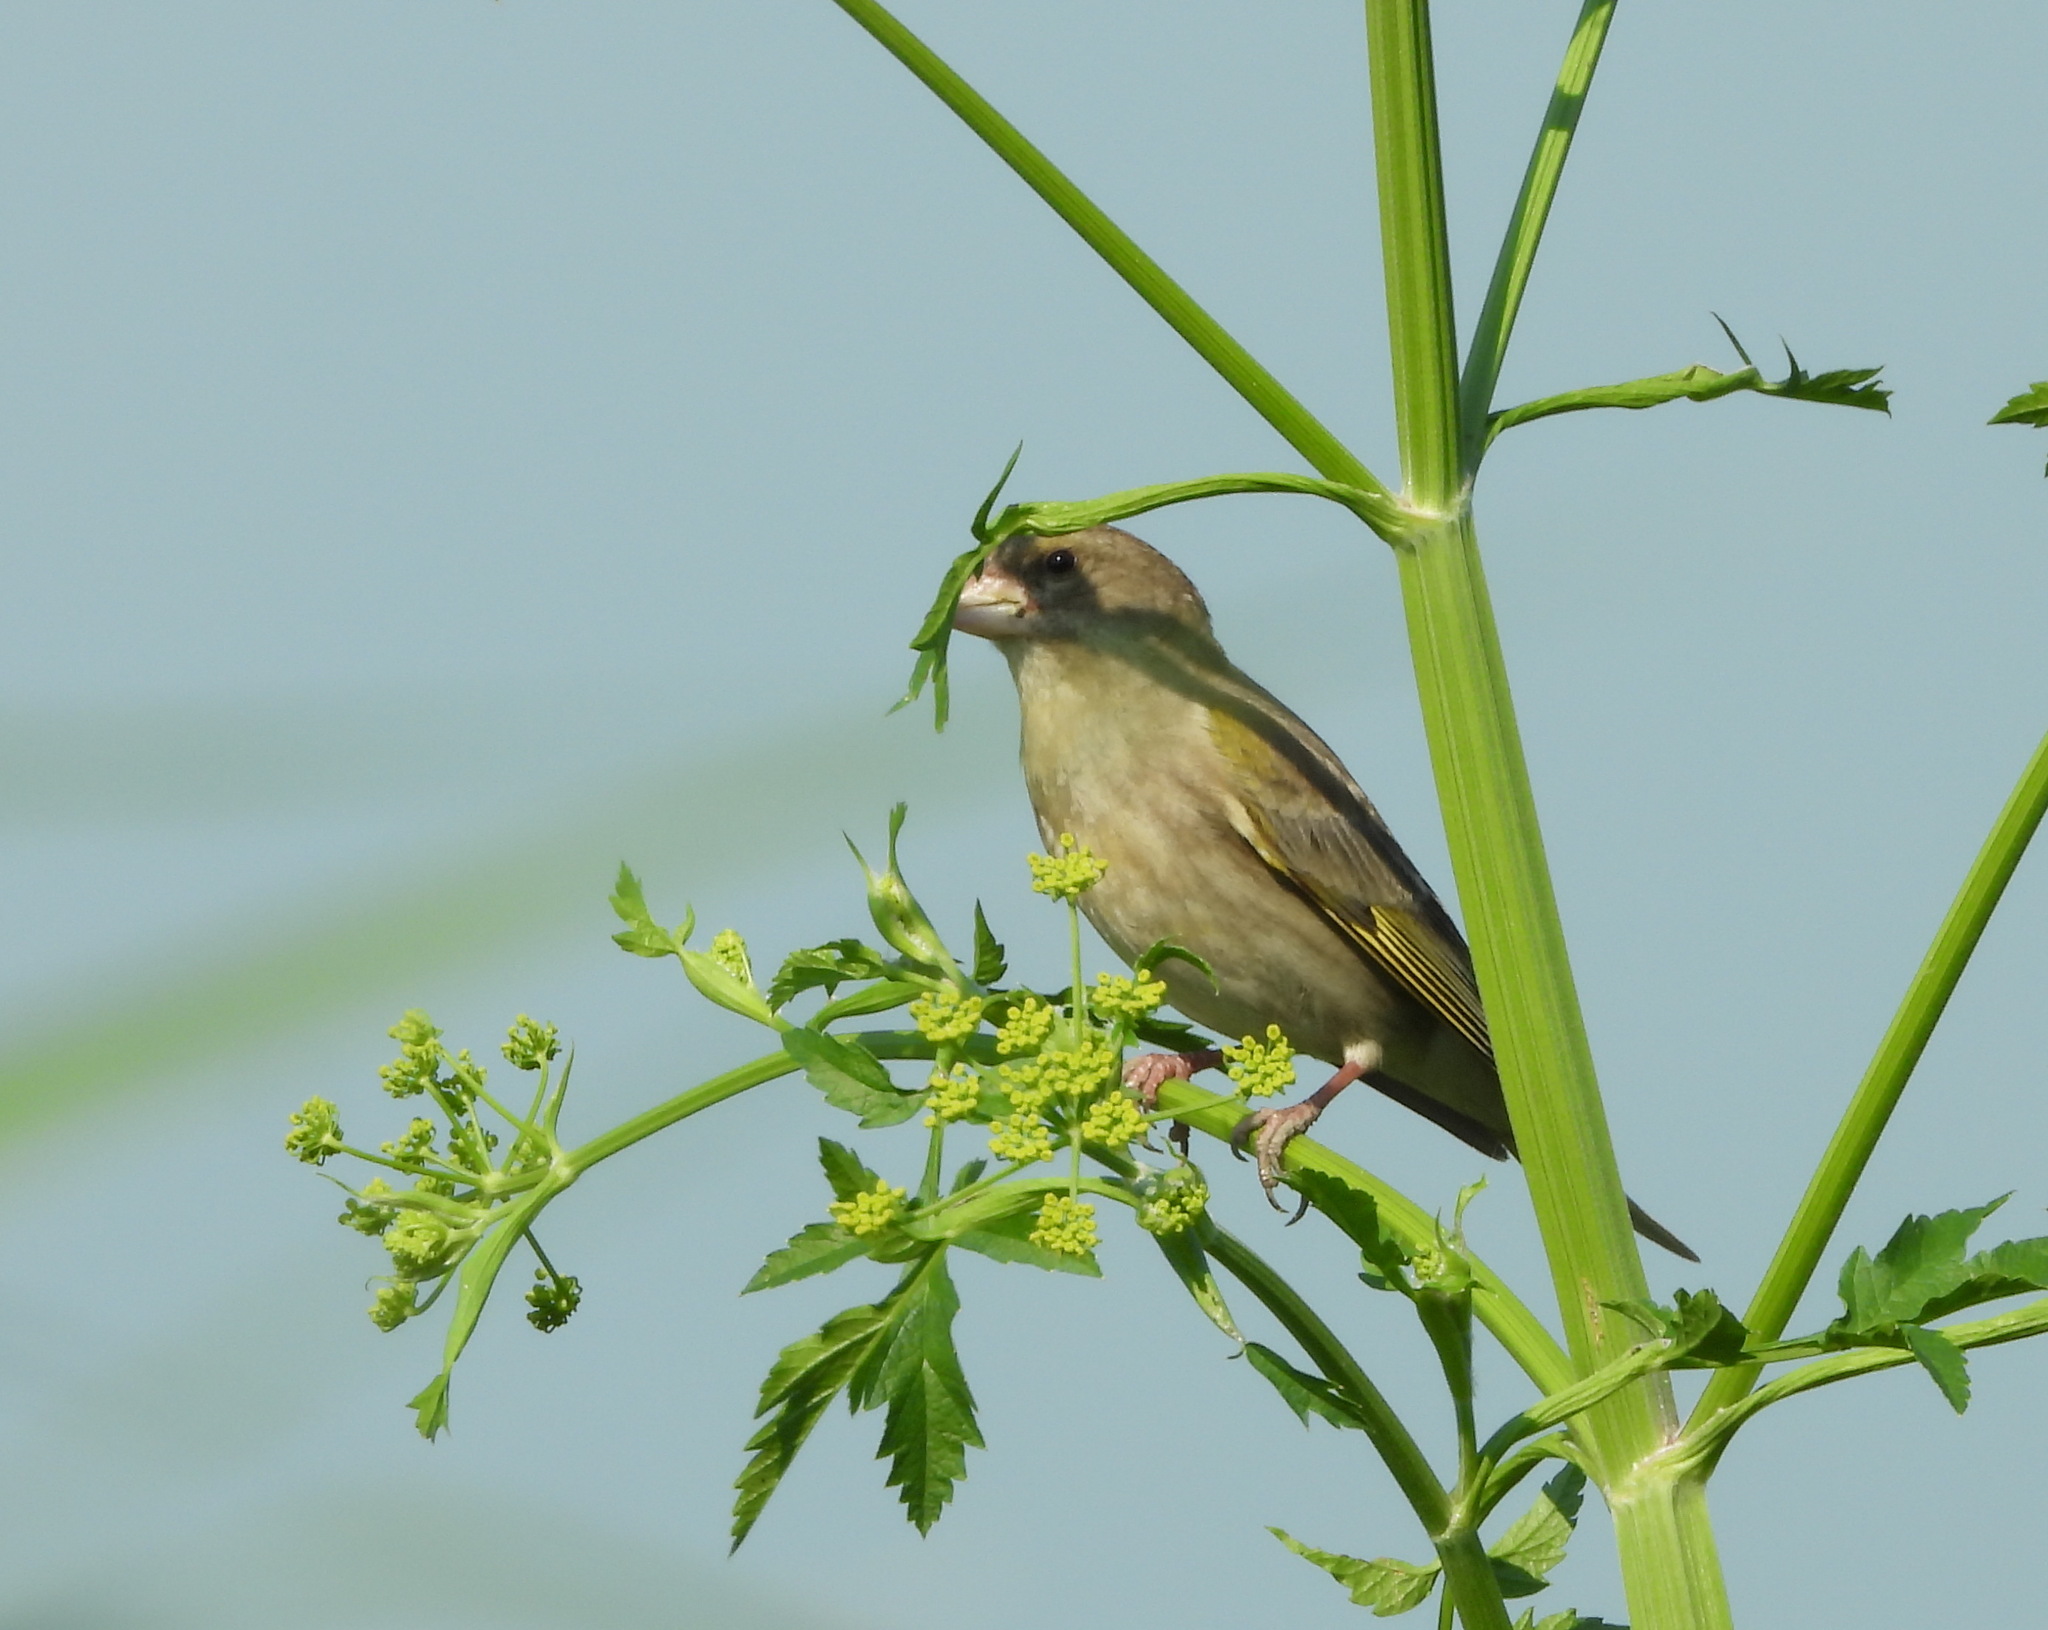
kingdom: Plantae
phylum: Tracheophyta
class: Liliopsida
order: Poales
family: Poaceae
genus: Chloris
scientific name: Chloris chloris
